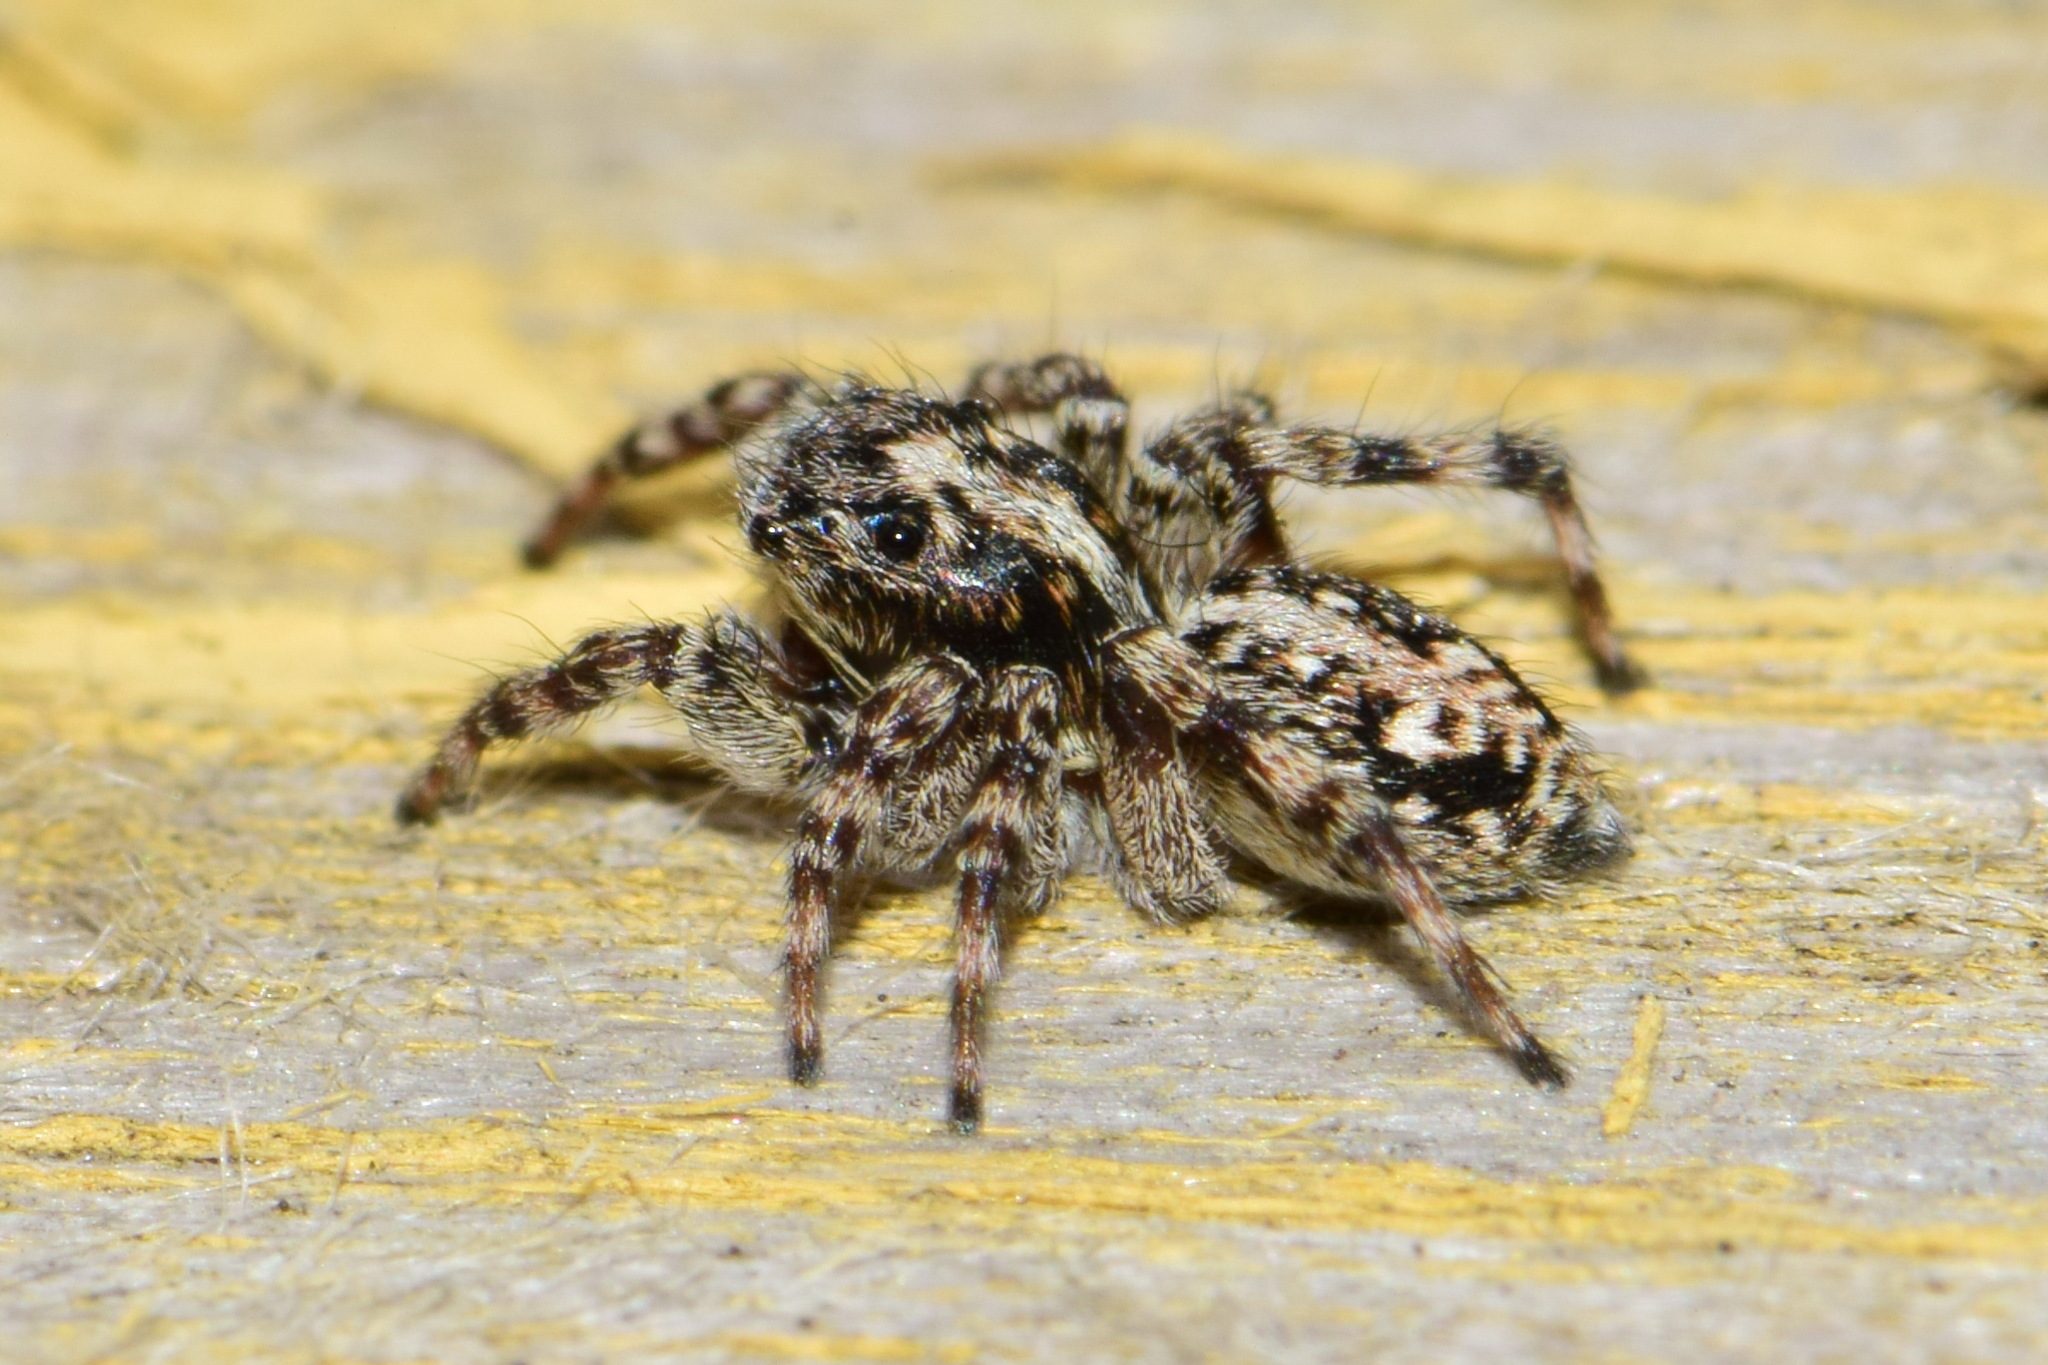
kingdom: Animalia
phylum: Arthropoda
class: Arachnida
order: Araneae
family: Salticidae
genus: Attulus
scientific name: Attulus terebratus
